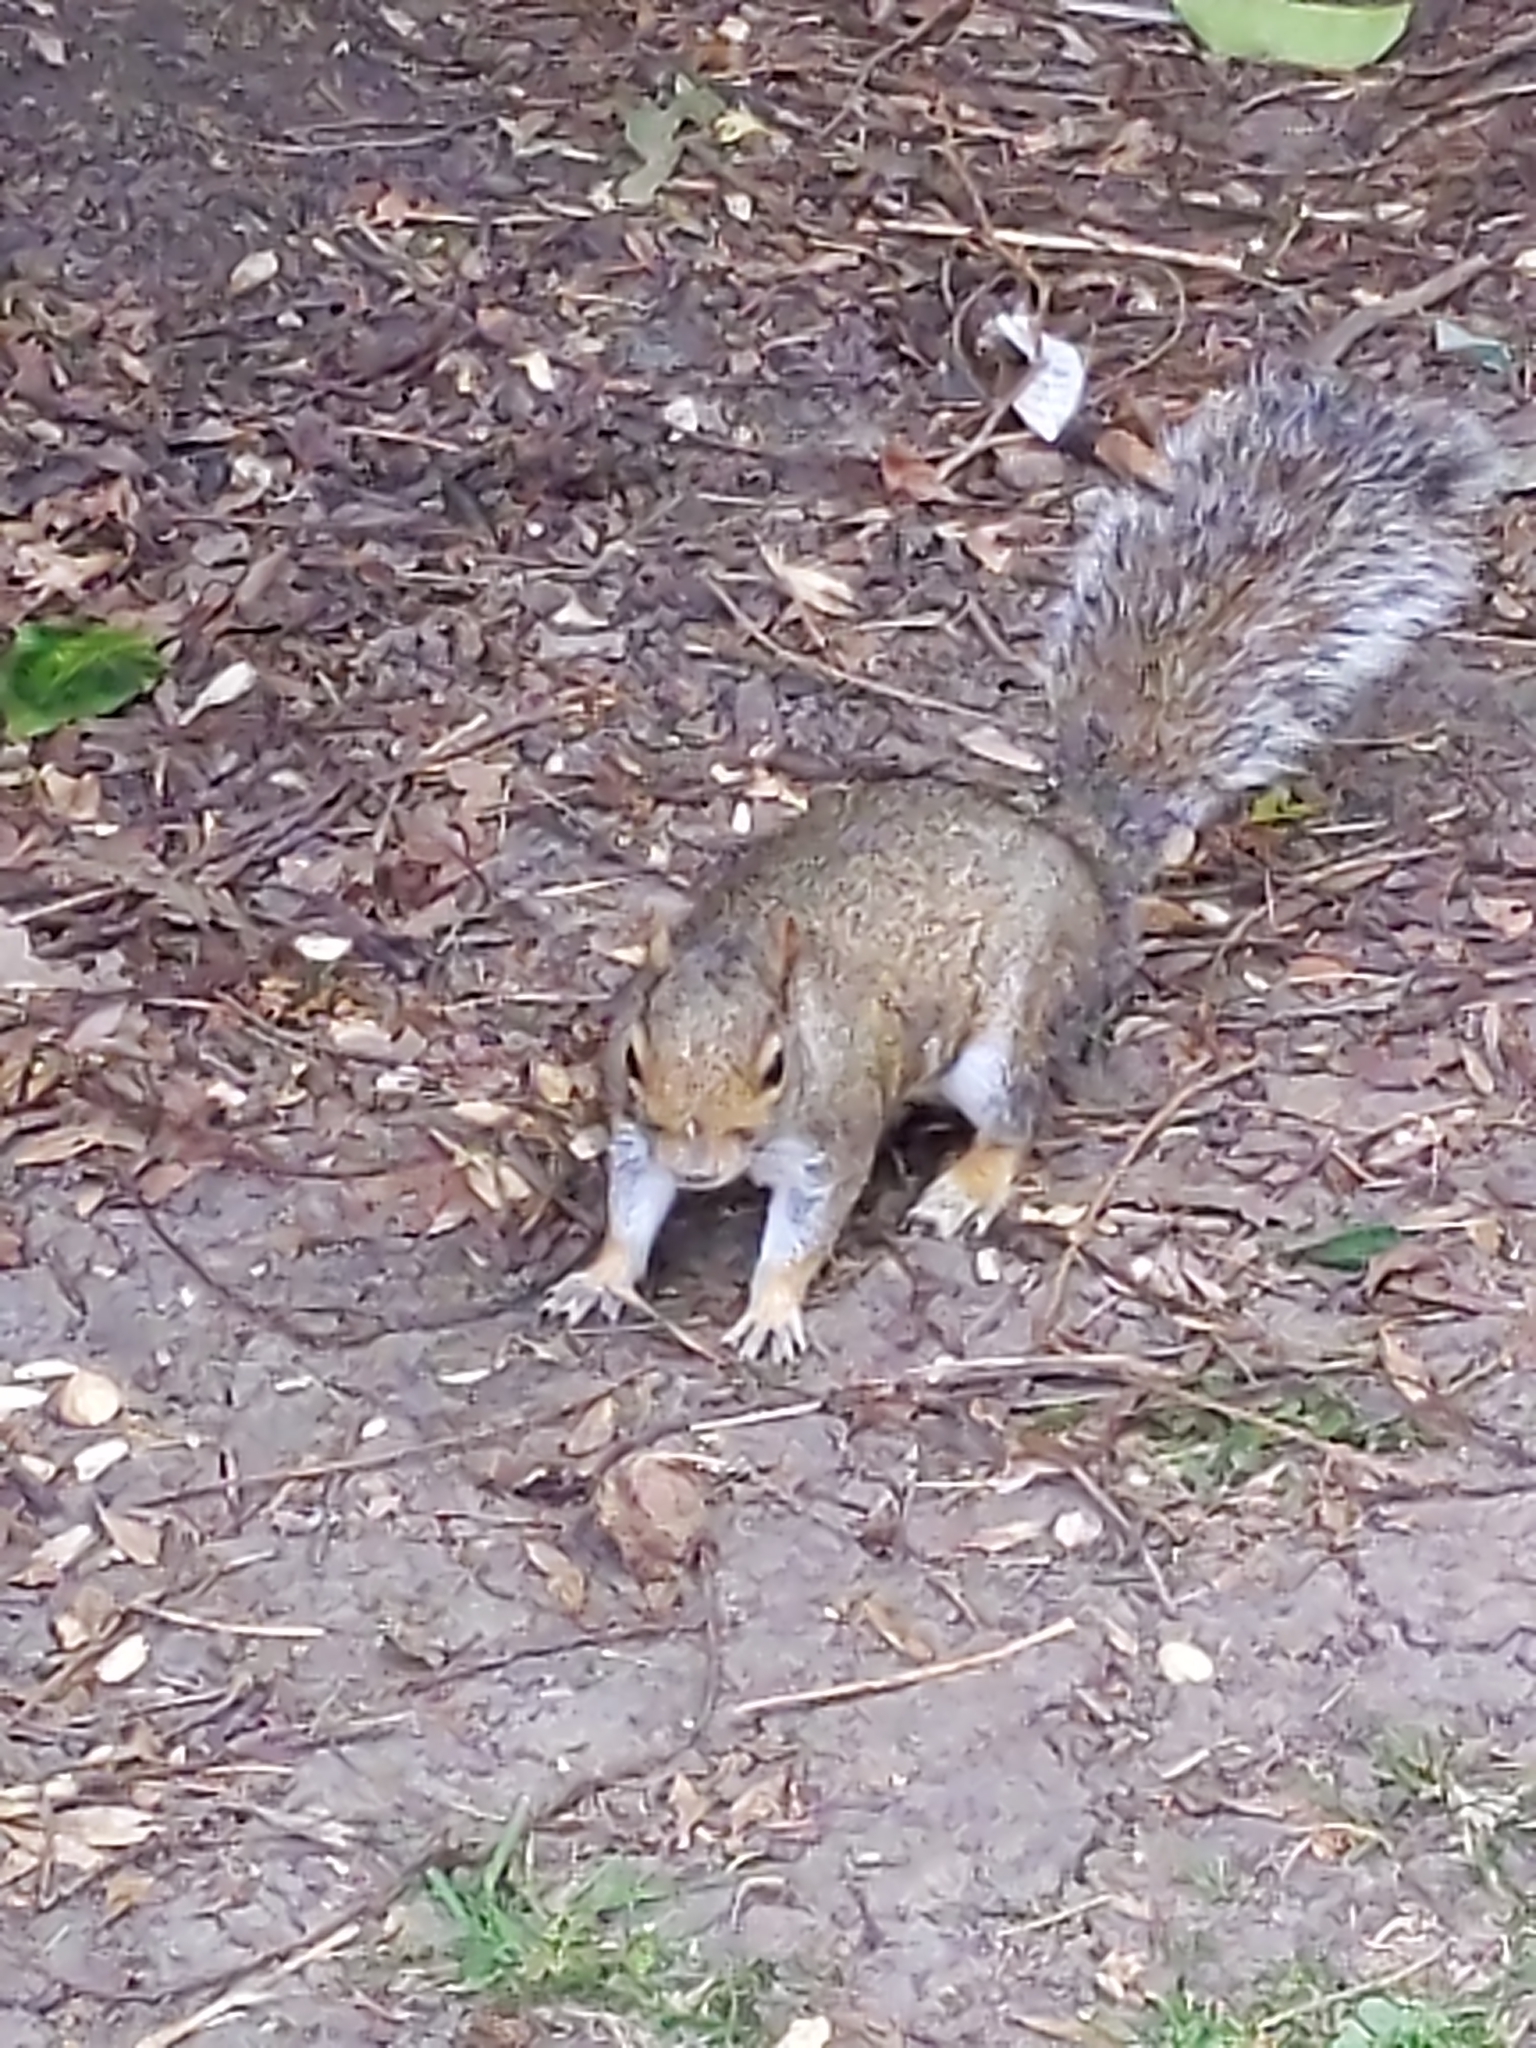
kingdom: Animalia
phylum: Chordata
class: Mammalia
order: Rodentia
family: Sciuridae
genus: Sciurus
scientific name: Sciurus carolinensis
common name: Eastern gray squirrel
